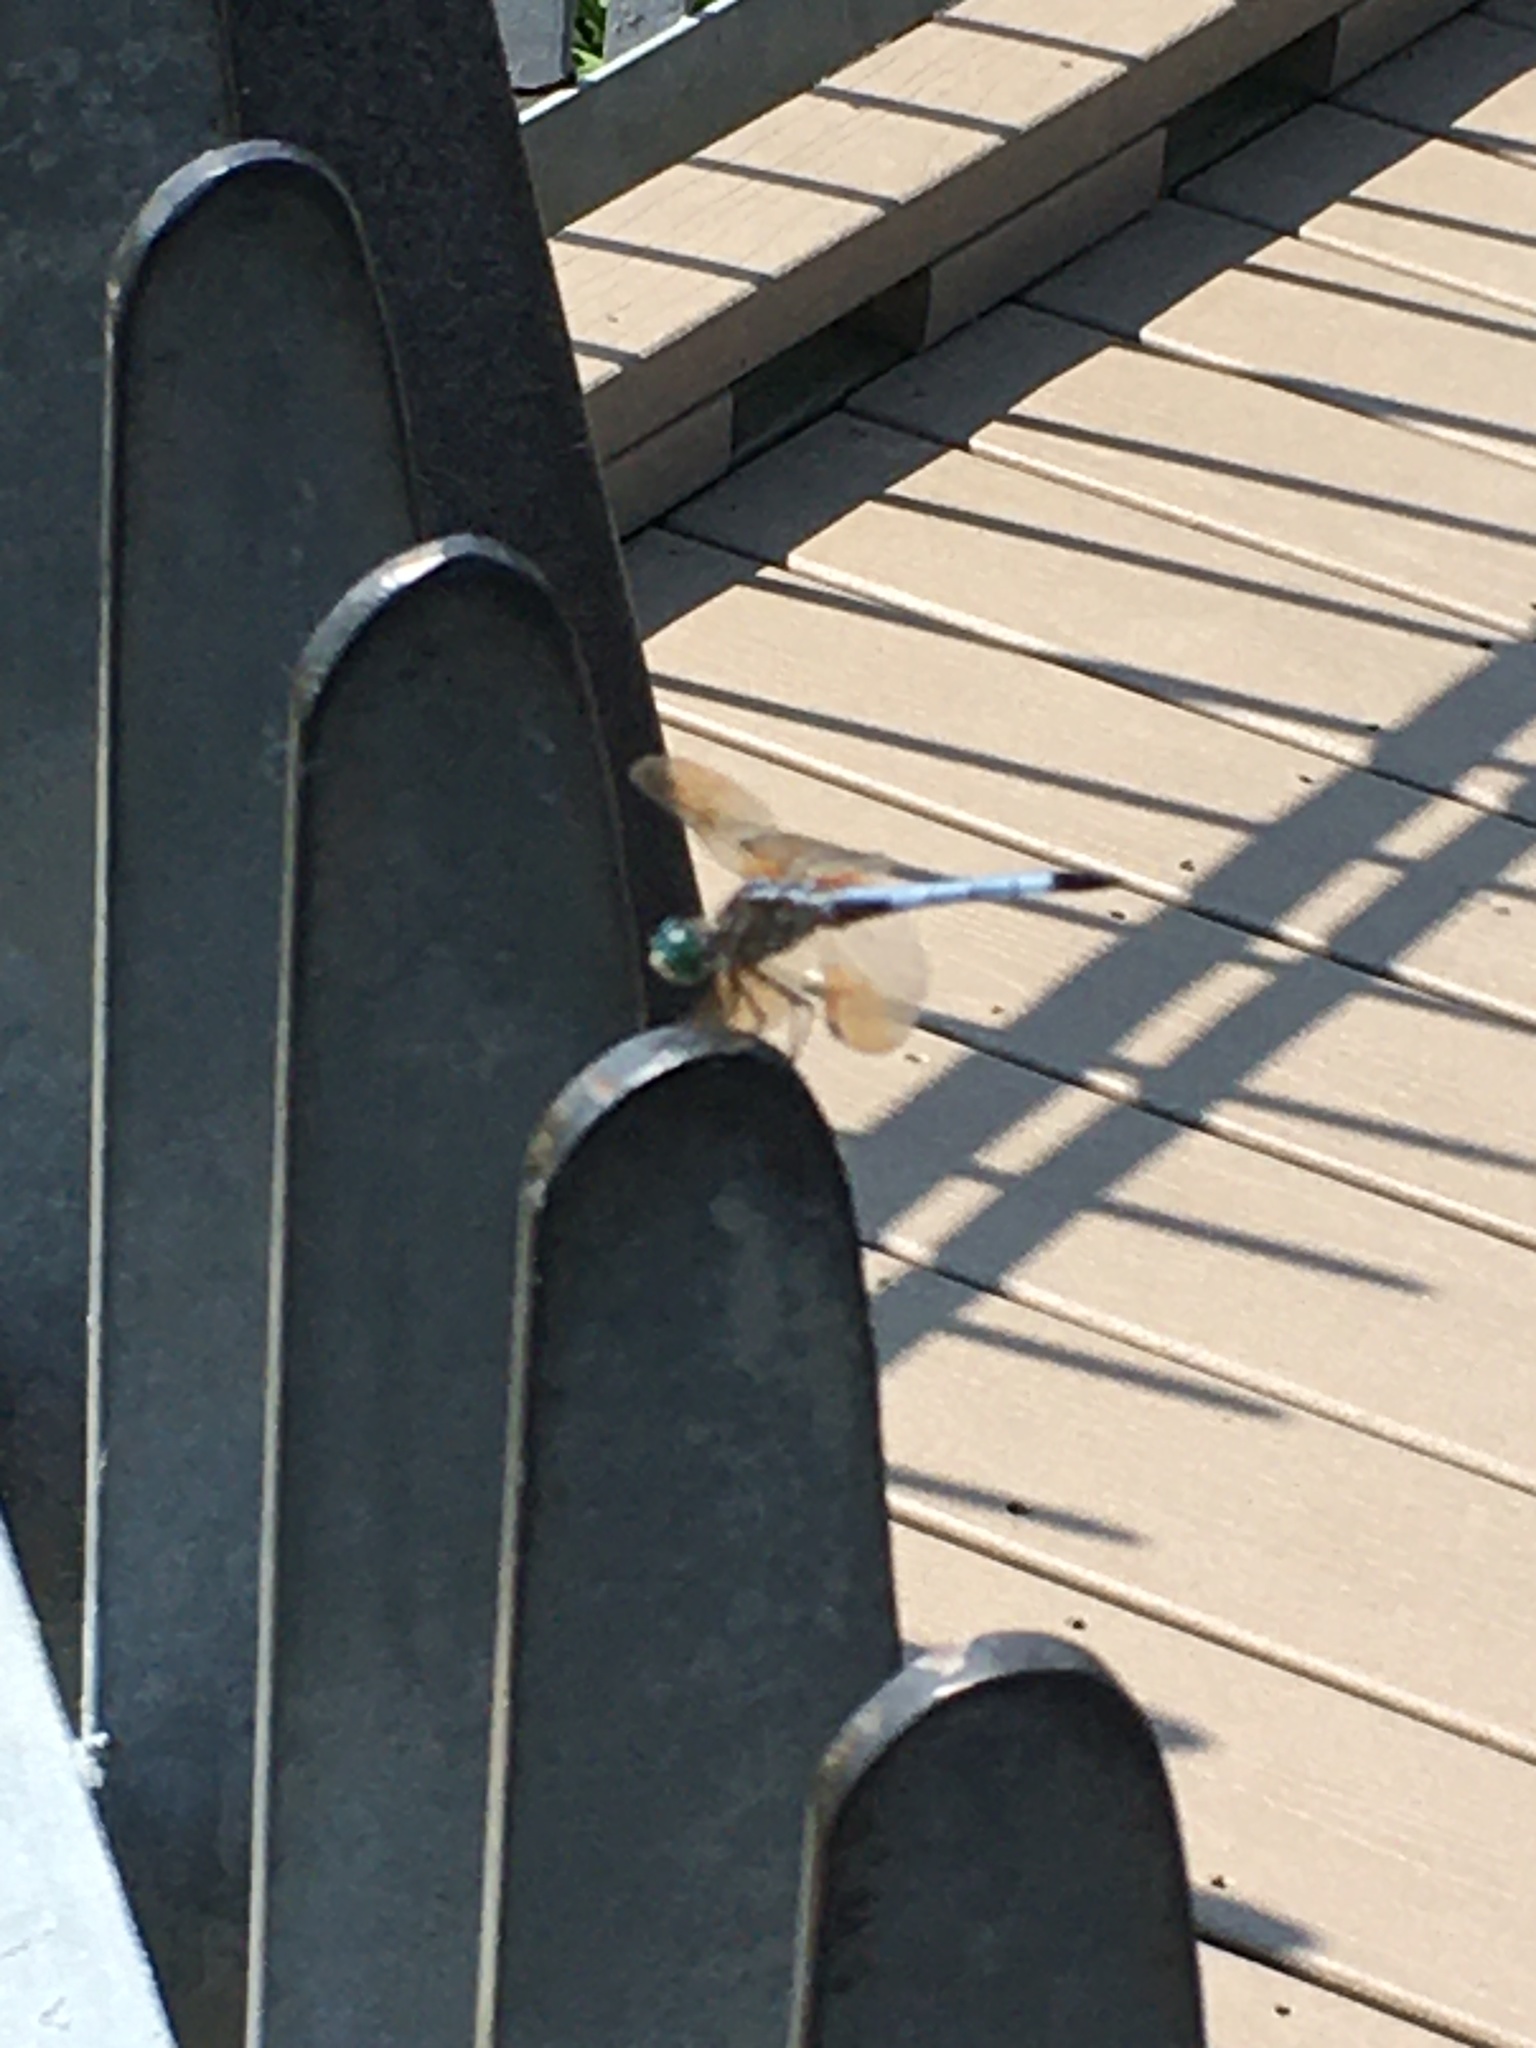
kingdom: Animalia
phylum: Arthropoda
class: Insecta
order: Odonata
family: Libellulidae
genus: Pachydiplax
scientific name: Pachydiplax longipennis
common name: Blue dasher
